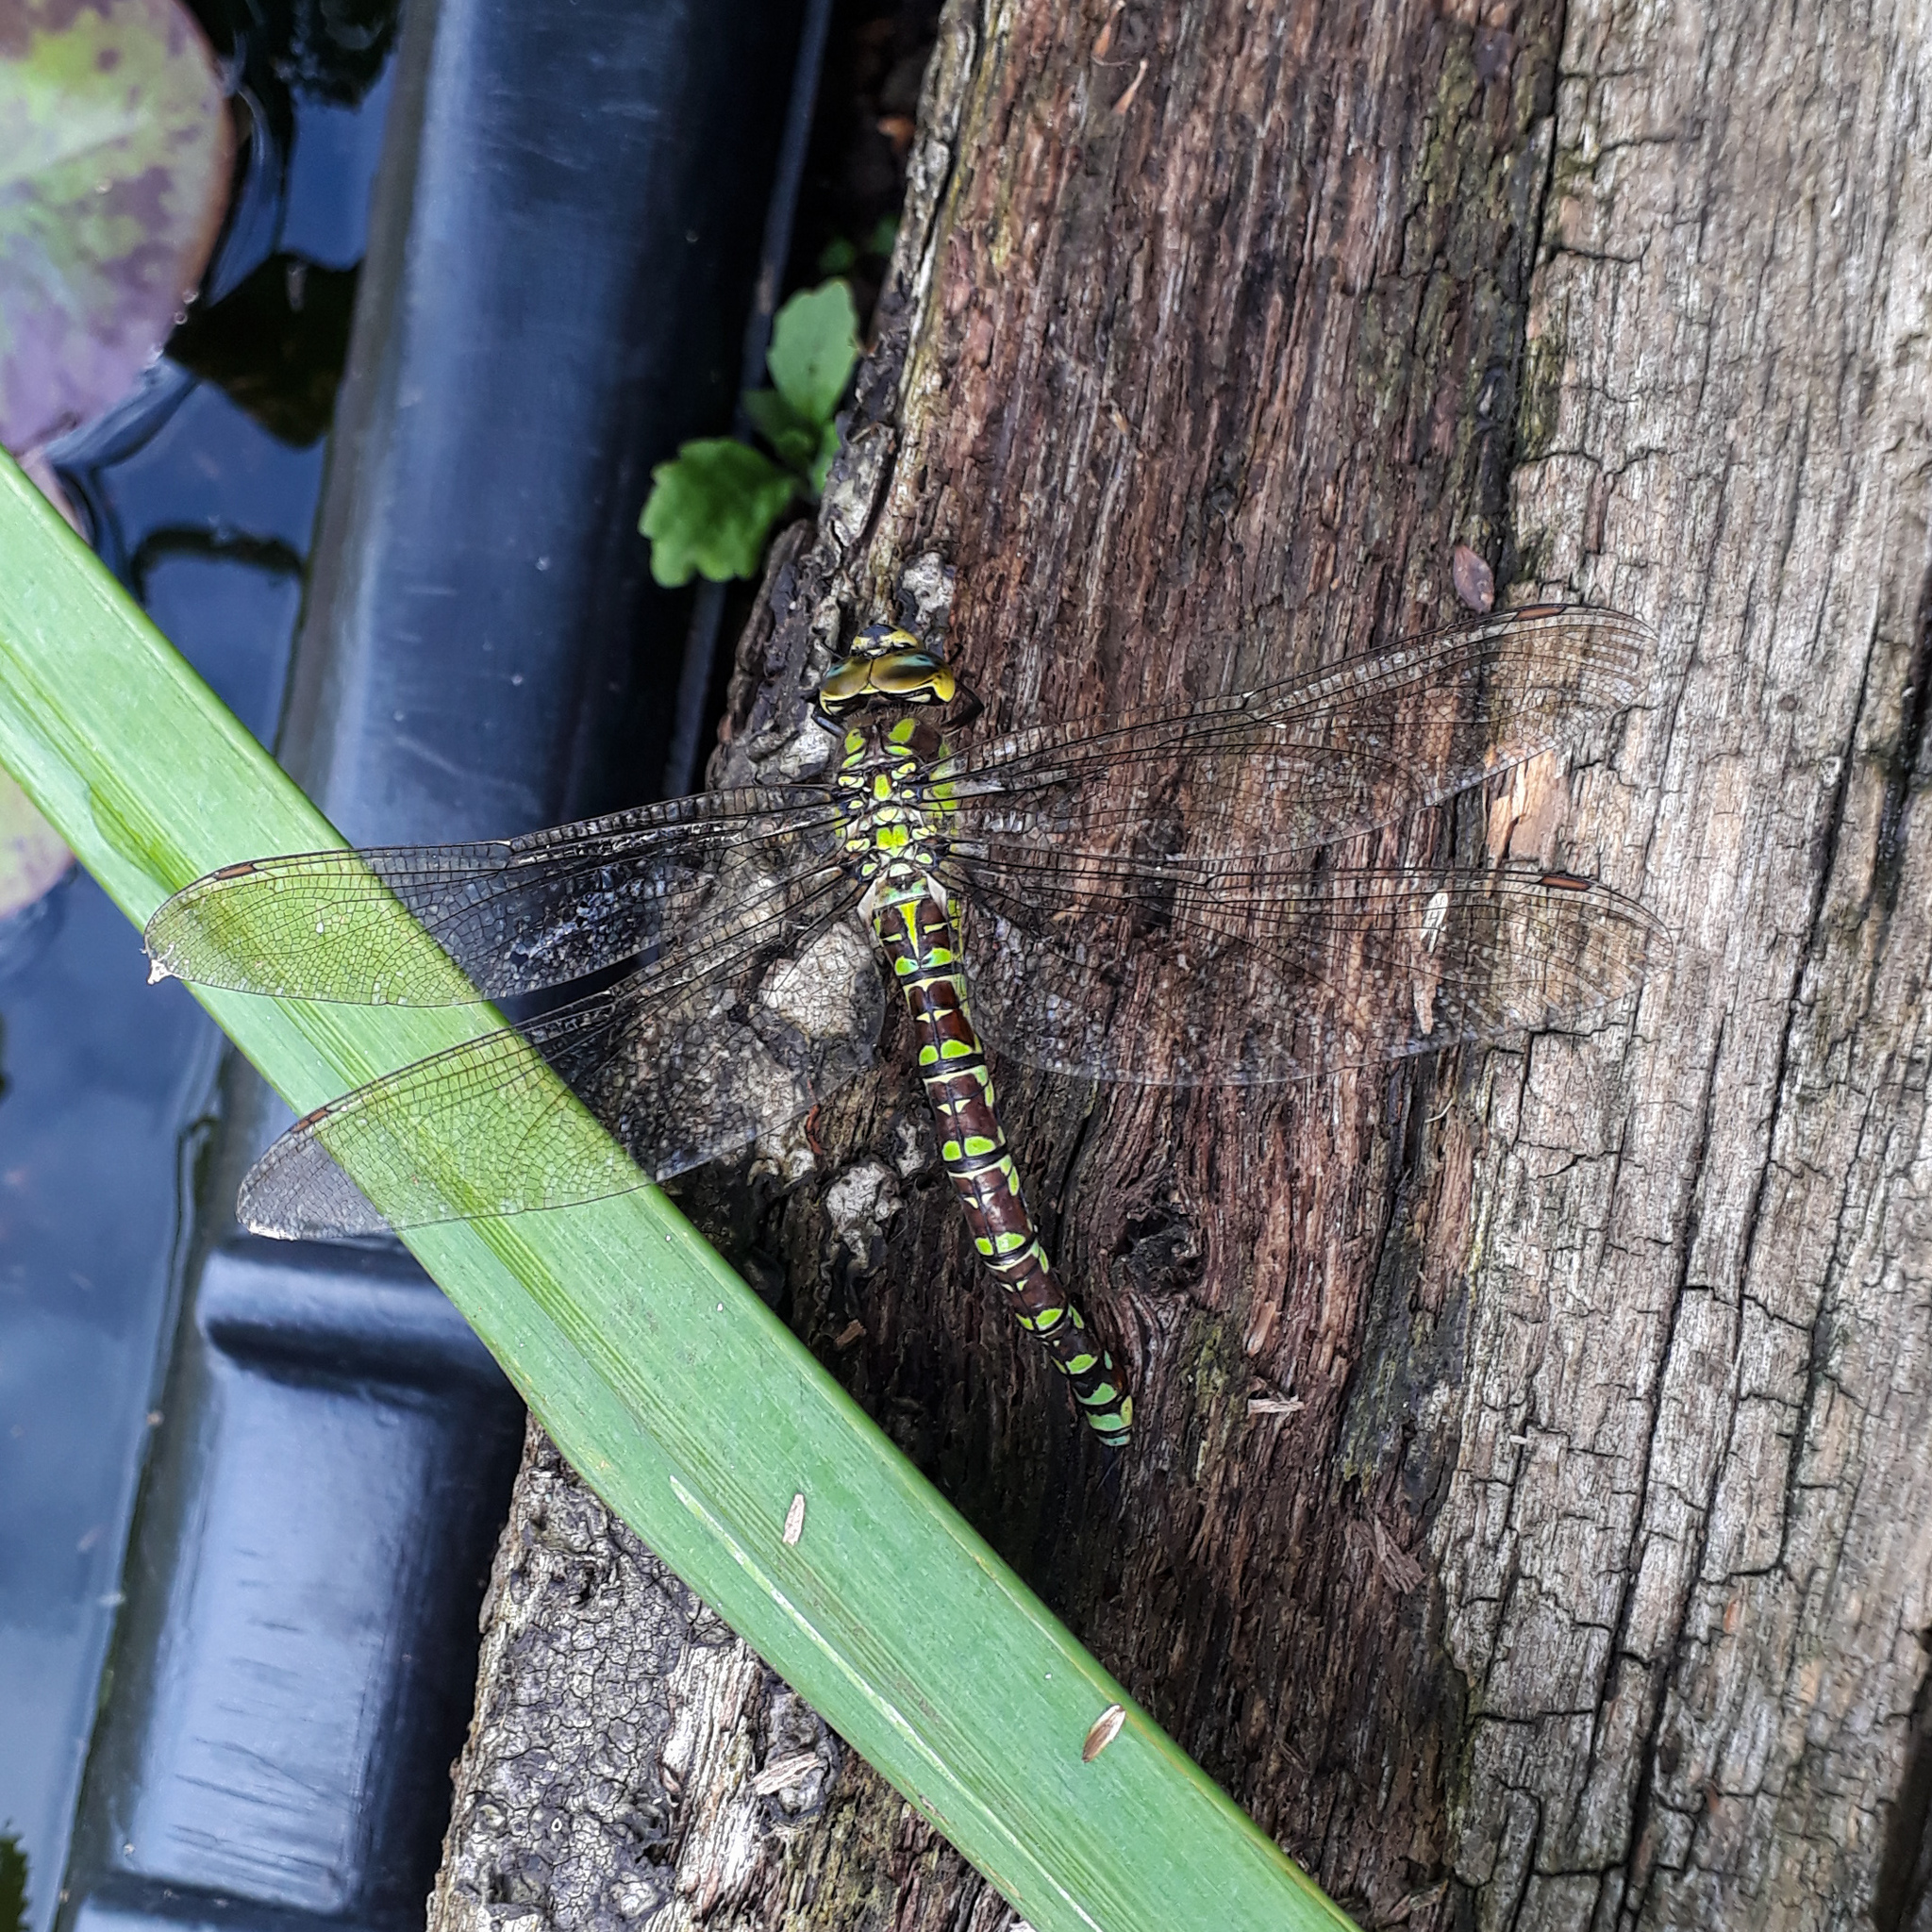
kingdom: Animalia
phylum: Arthropoda
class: Insecta
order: Odonata
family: Aeshnidae
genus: Aeshna
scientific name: Aeshna cyanea
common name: Southern hawker
